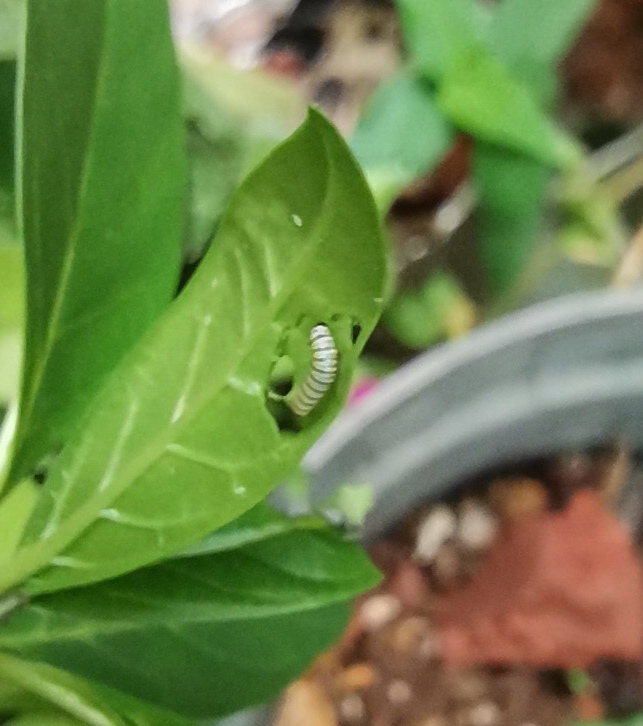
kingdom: Animalia
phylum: Arthropoda
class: Insecta
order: Lepidoptera
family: Nymphalidae
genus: Danaus
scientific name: Danaus plexippus
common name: Monarch
